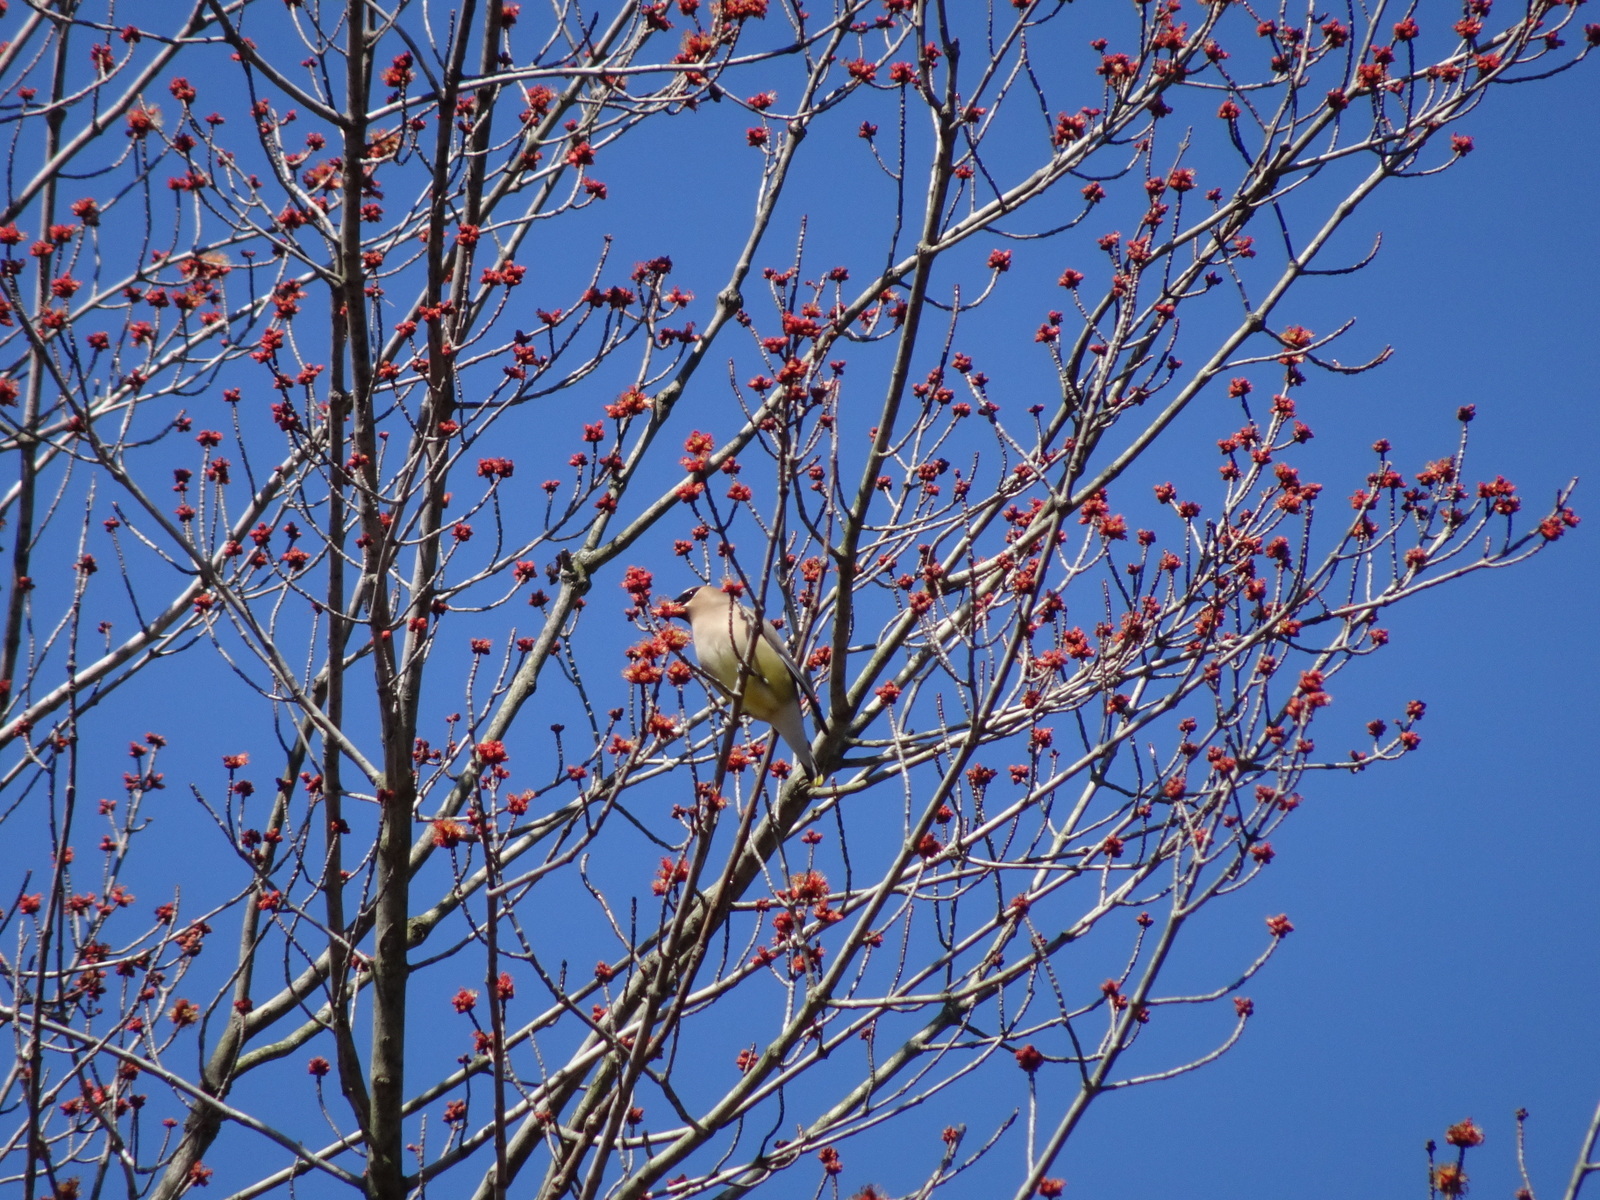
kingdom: Animalia
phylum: Chordata
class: Aves
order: Passeriformes
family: Bombycillidae
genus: Bombycilla
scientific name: Bombycilla cedrorum
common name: Cedar waxwing
